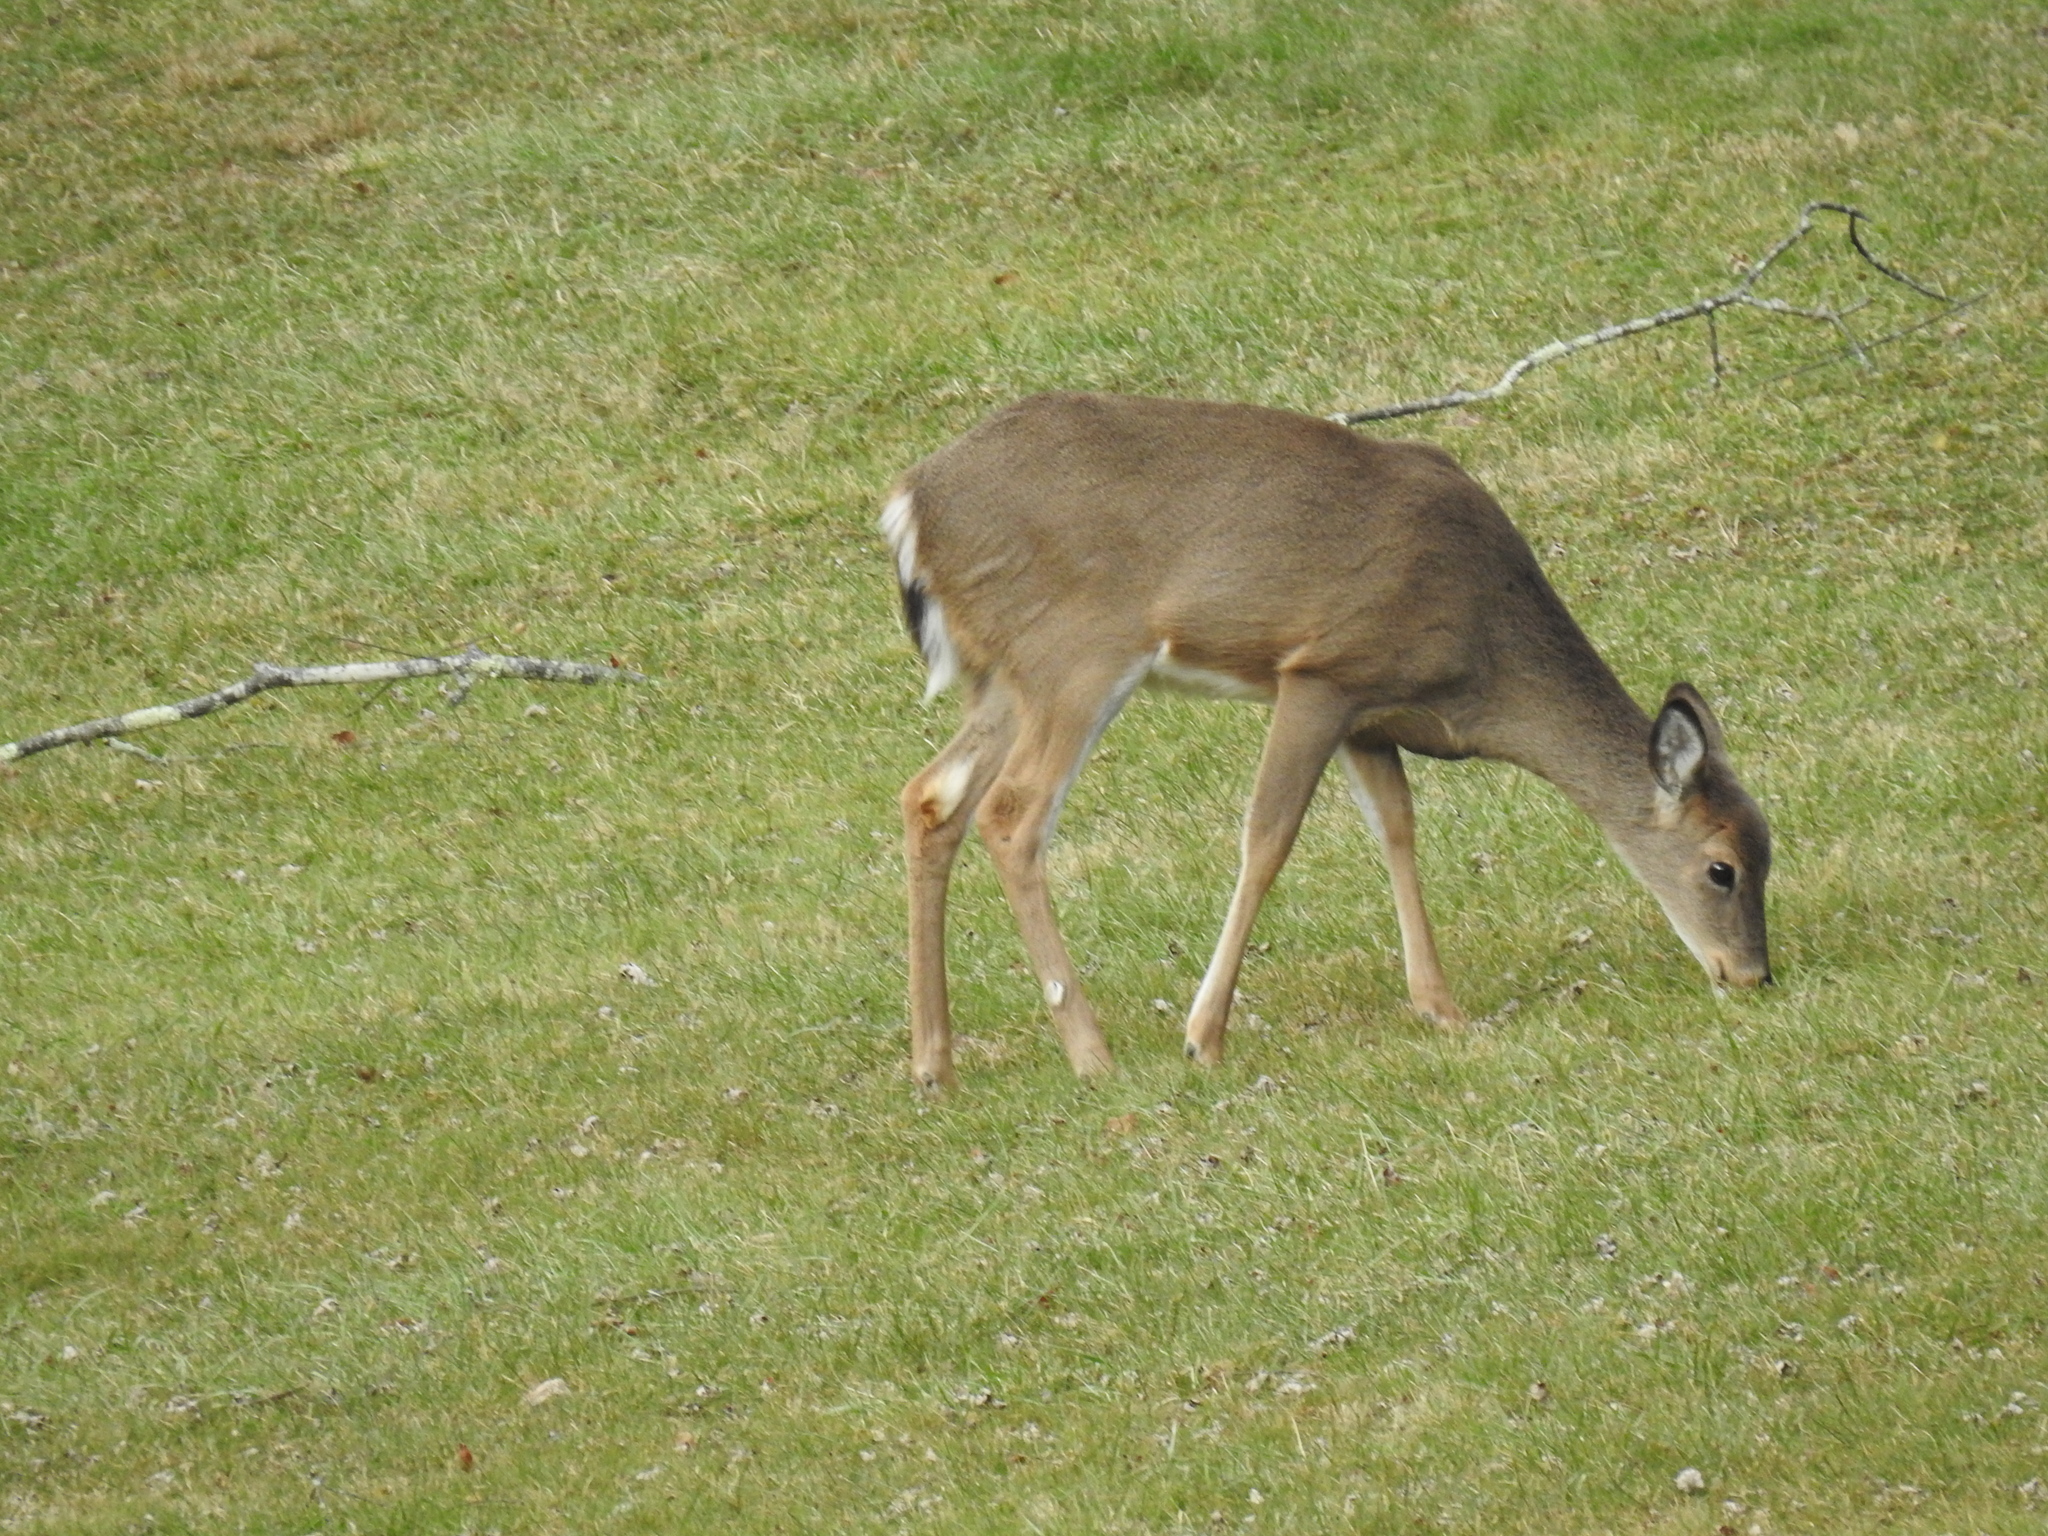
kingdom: Animalia
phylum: Chordata
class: Mammalia
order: Artiodactyla
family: Cervidae
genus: Odocoileus
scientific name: Odocoileus virginianus
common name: White-tailed deer
